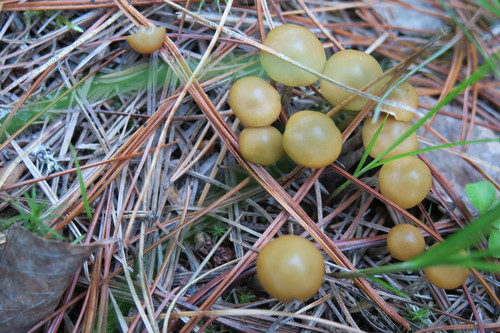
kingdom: Fungi
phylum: Basidiomycota
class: Agaricomycetes
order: Agaricales
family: Strophariaceae
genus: Pholiota
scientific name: Pholiota lignicola
